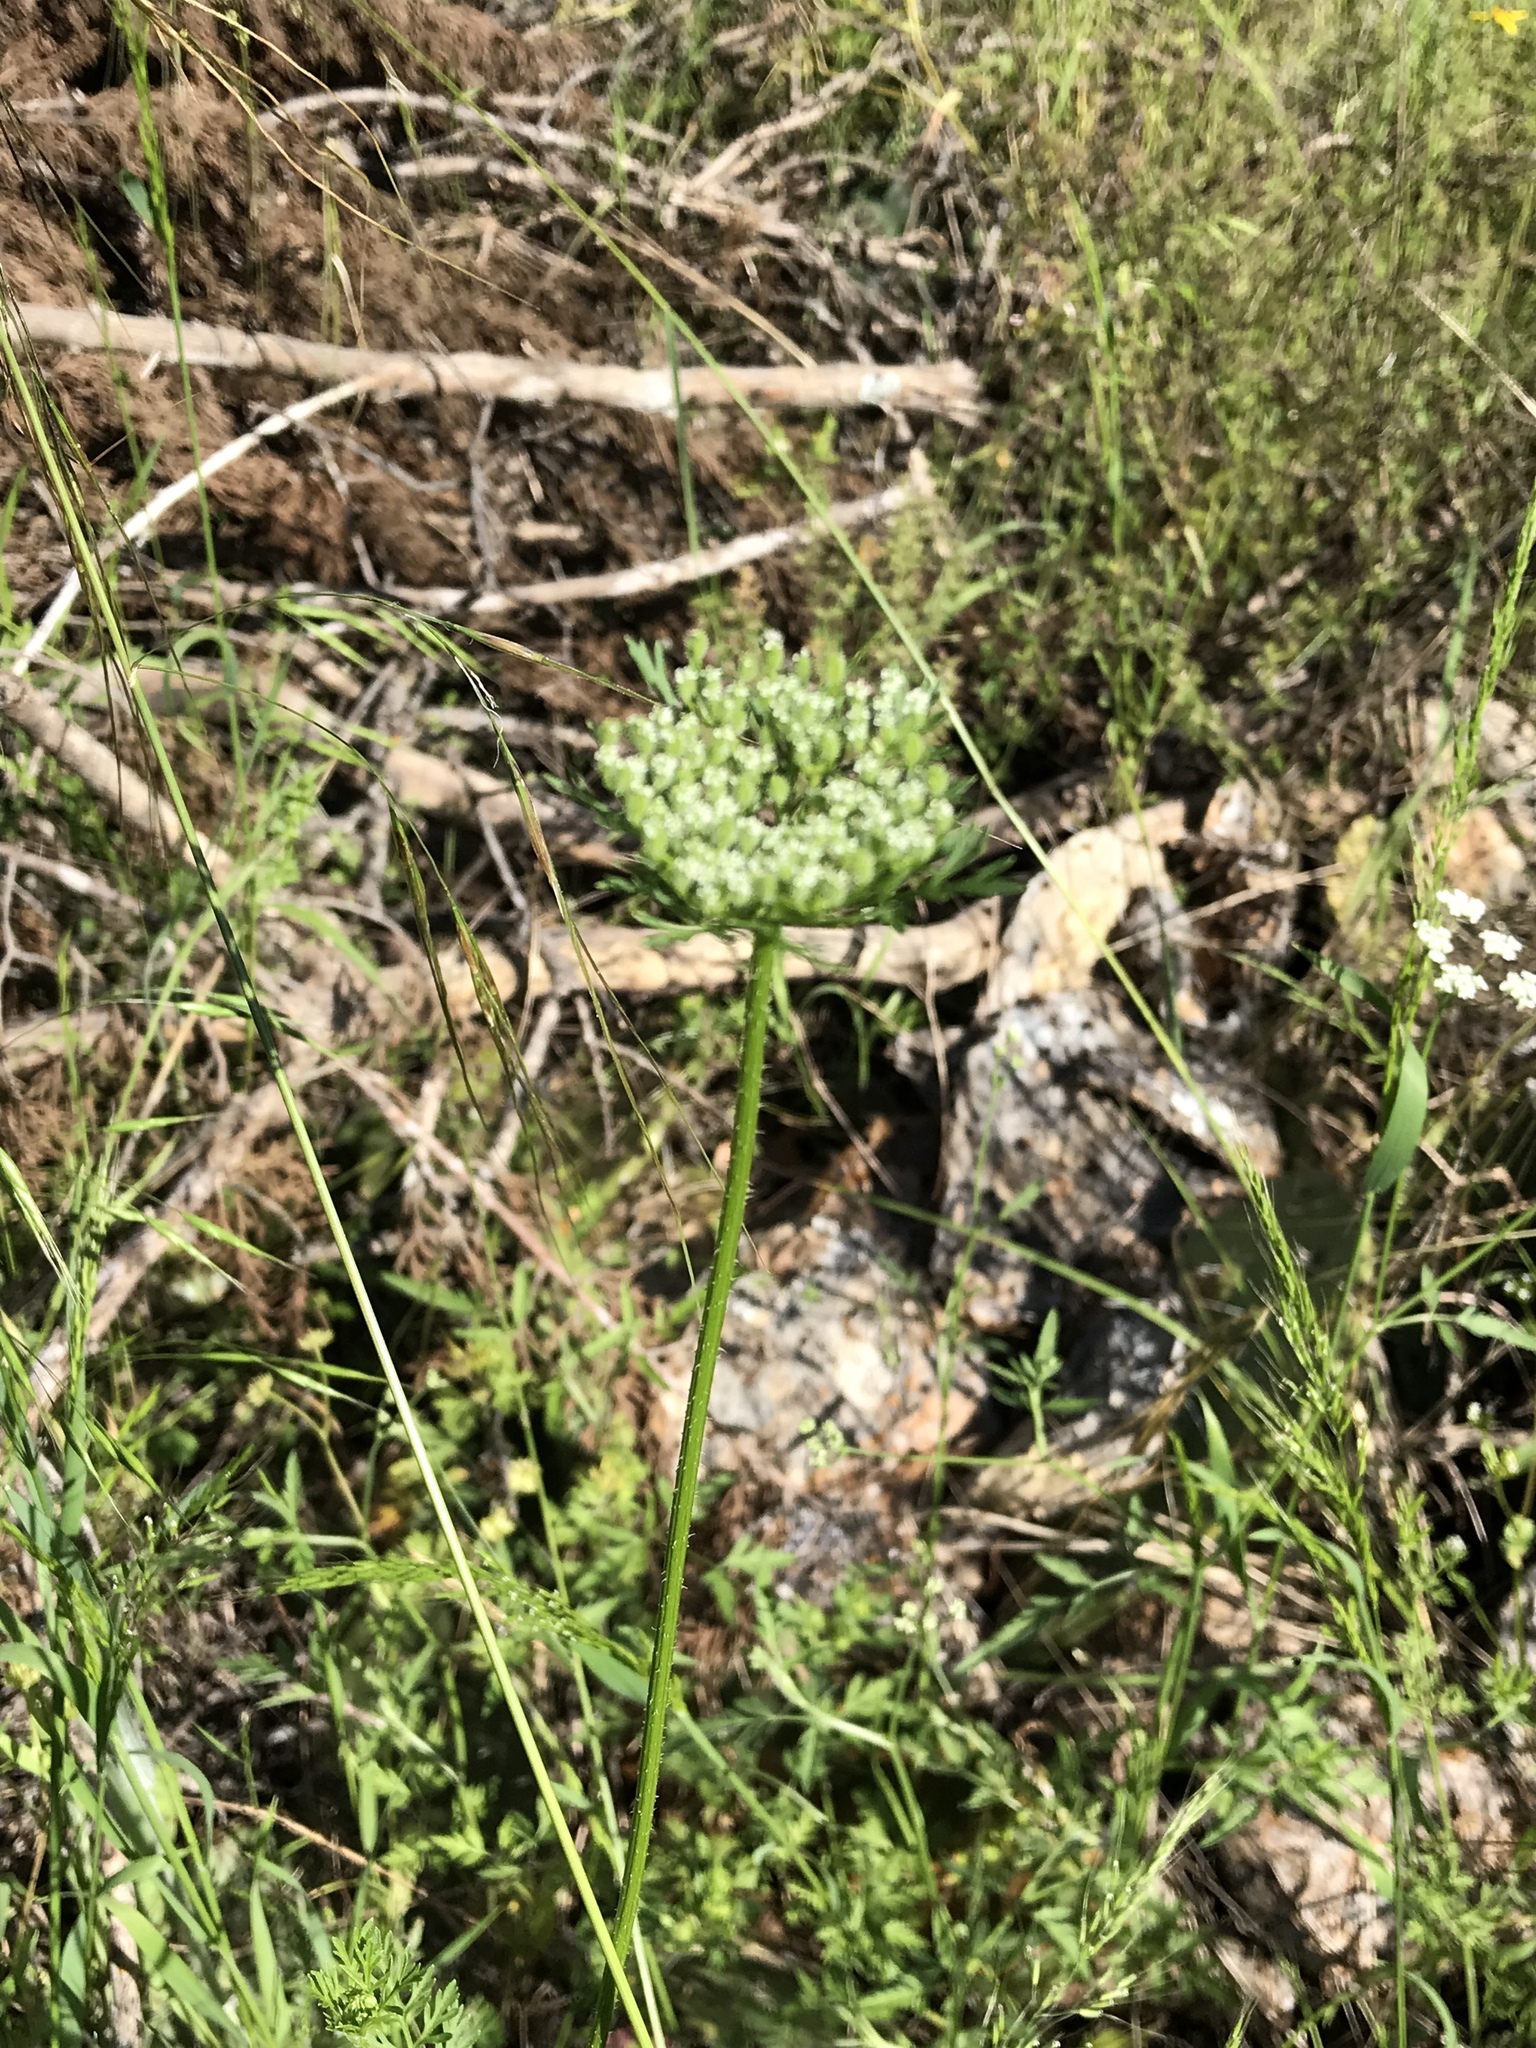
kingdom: Plantae
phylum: Tracheophyta
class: Magnoliopsida
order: Apiales
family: Apiaceae
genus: Daucus
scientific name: Daucus pusillus
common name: Southwest wild carrot
